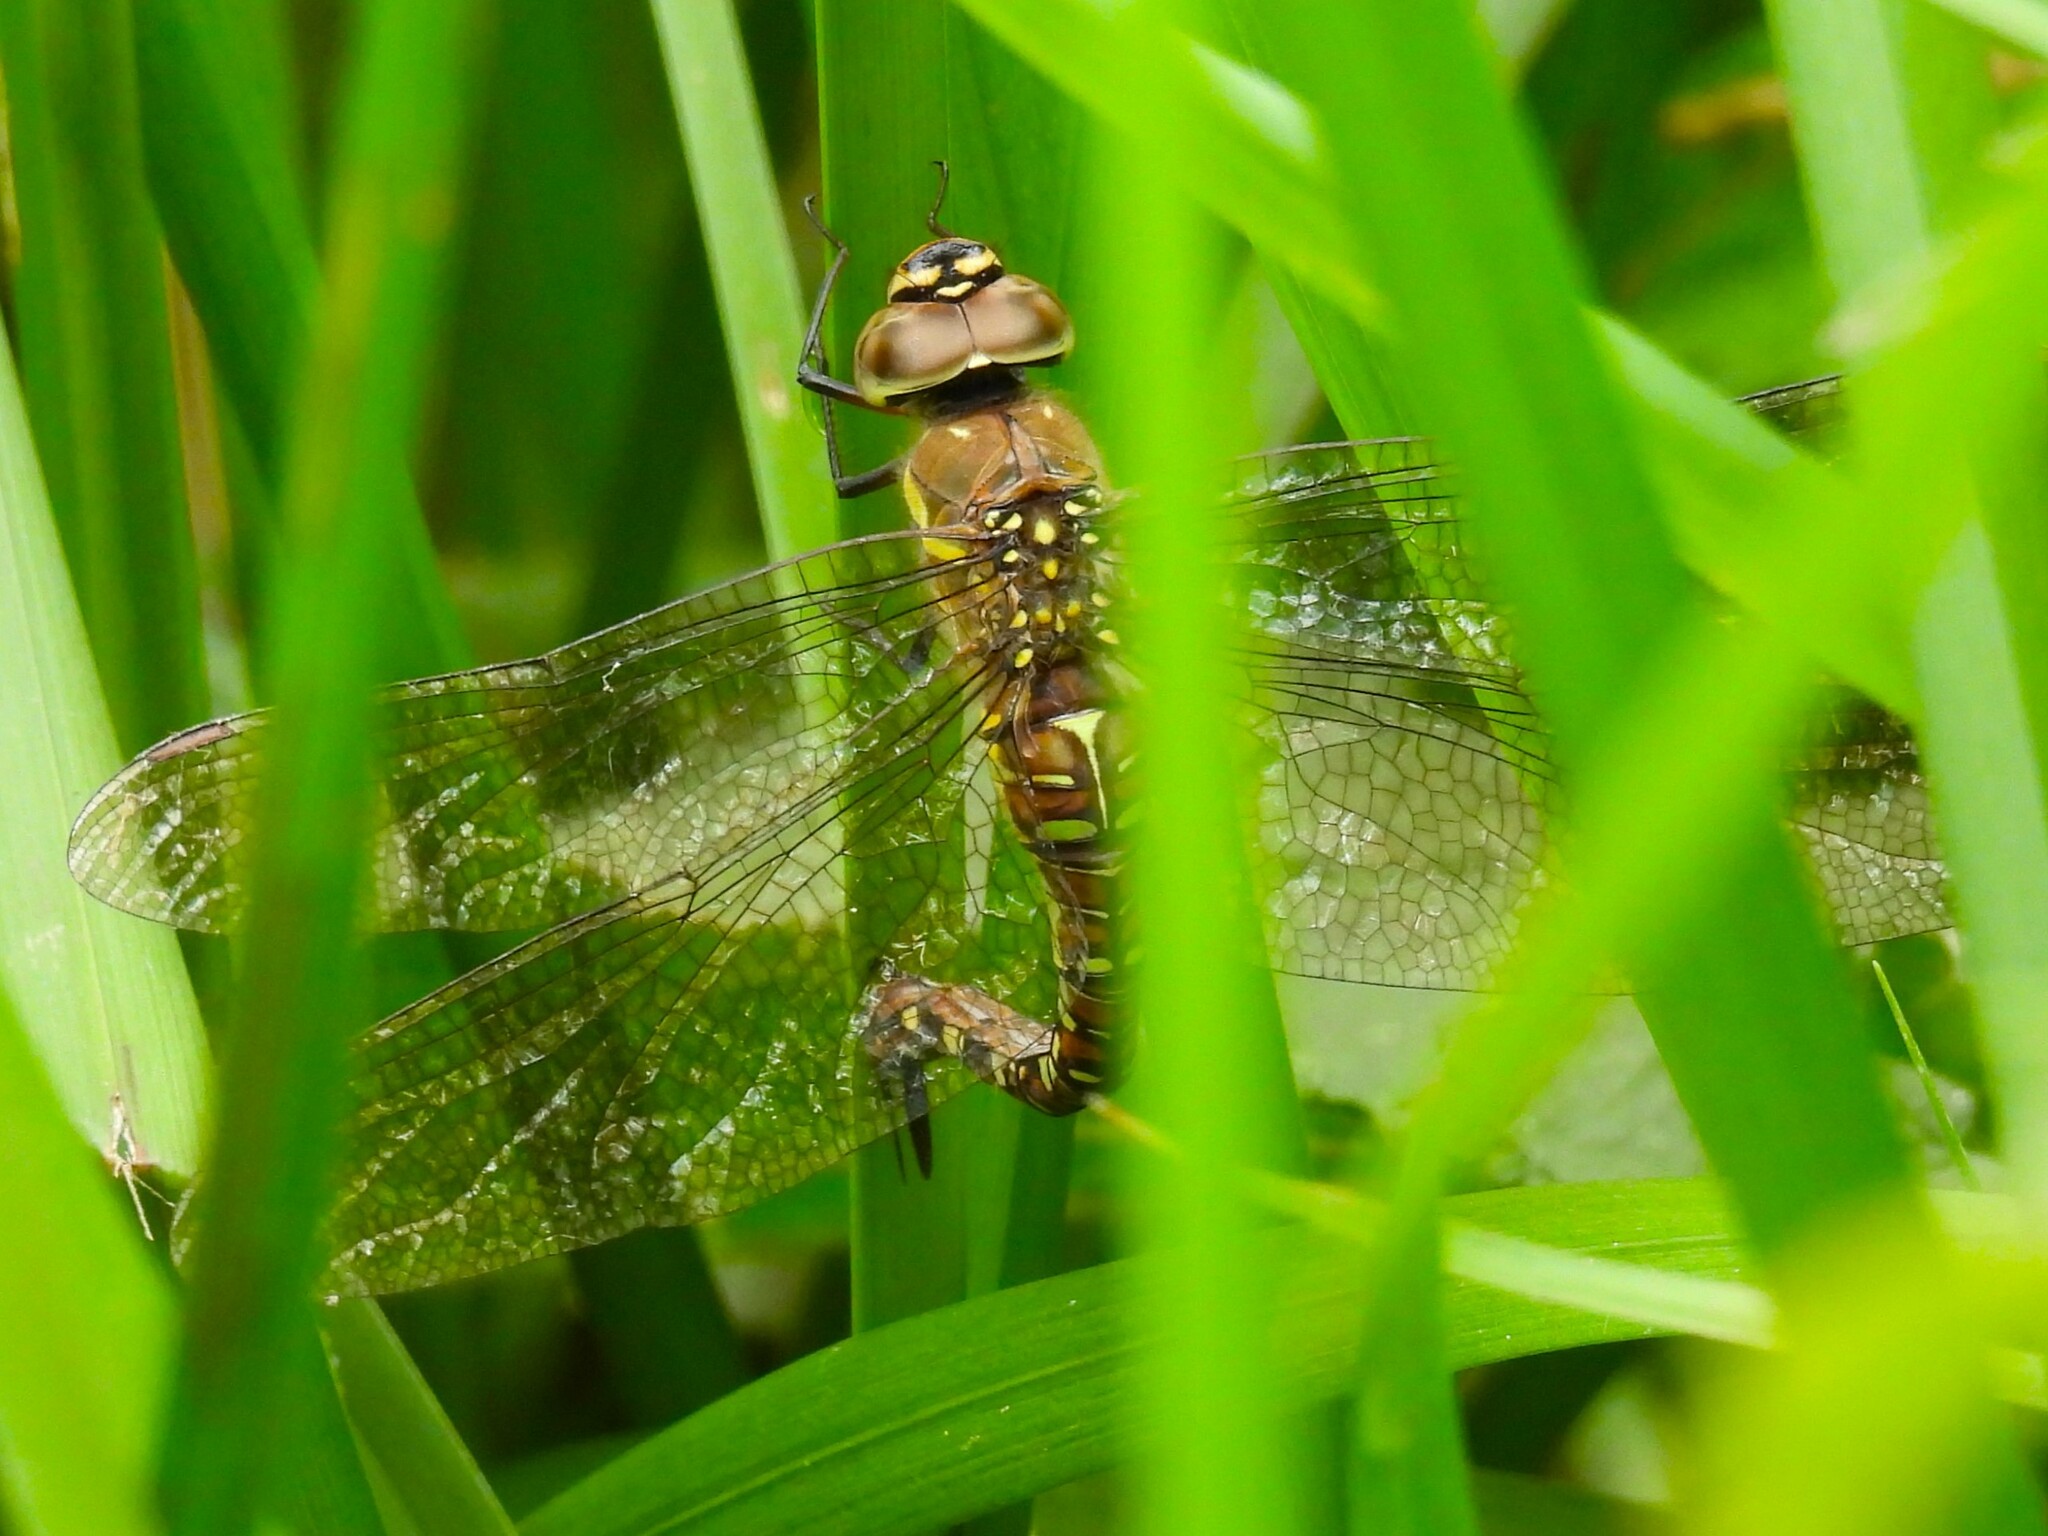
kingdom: Animalia
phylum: Arthropoda
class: Insecta
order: Odonata
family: Aeshnidae
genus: Aeshna
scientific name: Aeshna mixta
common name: Migrant hawker
